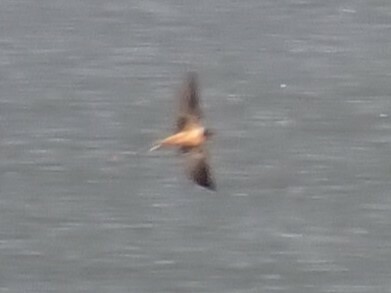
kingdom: Animalia
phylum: Chordata
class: Aves
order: Passeriformes
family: Hirundinidae
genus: Hirundo
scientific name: Hirundo rustica
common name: Barn swallow
